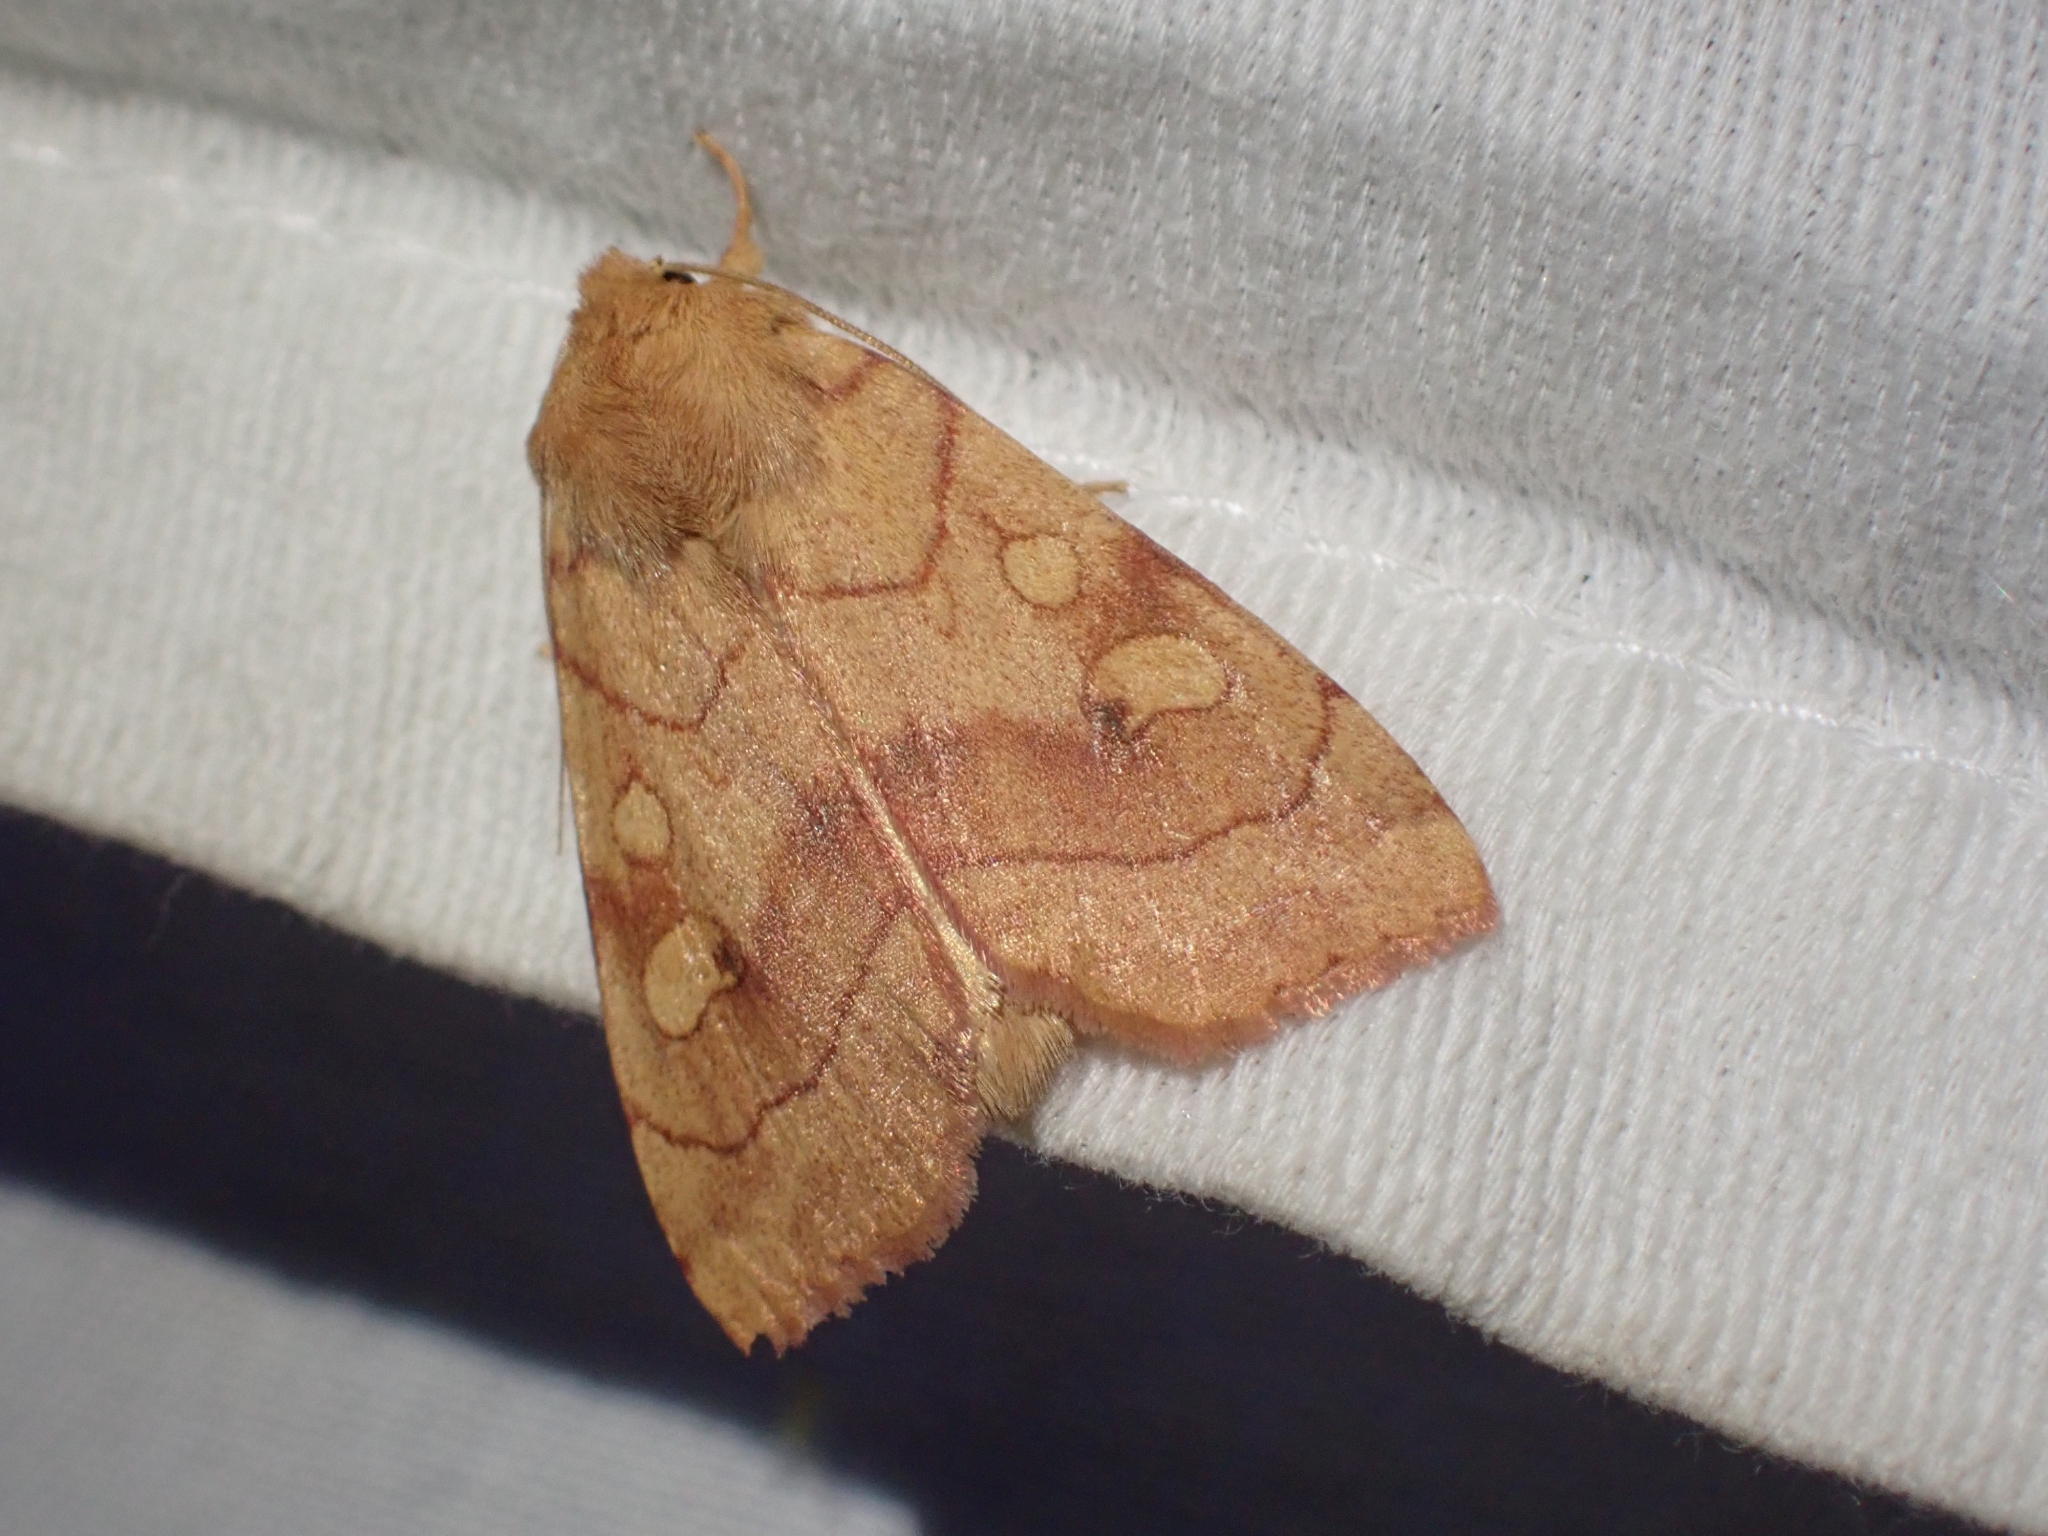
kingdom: Animalia
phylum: Arthropoda
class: Insecta
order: Lepidoptera
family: Noctuidae
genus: Enargia
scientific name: Enargia fausta
